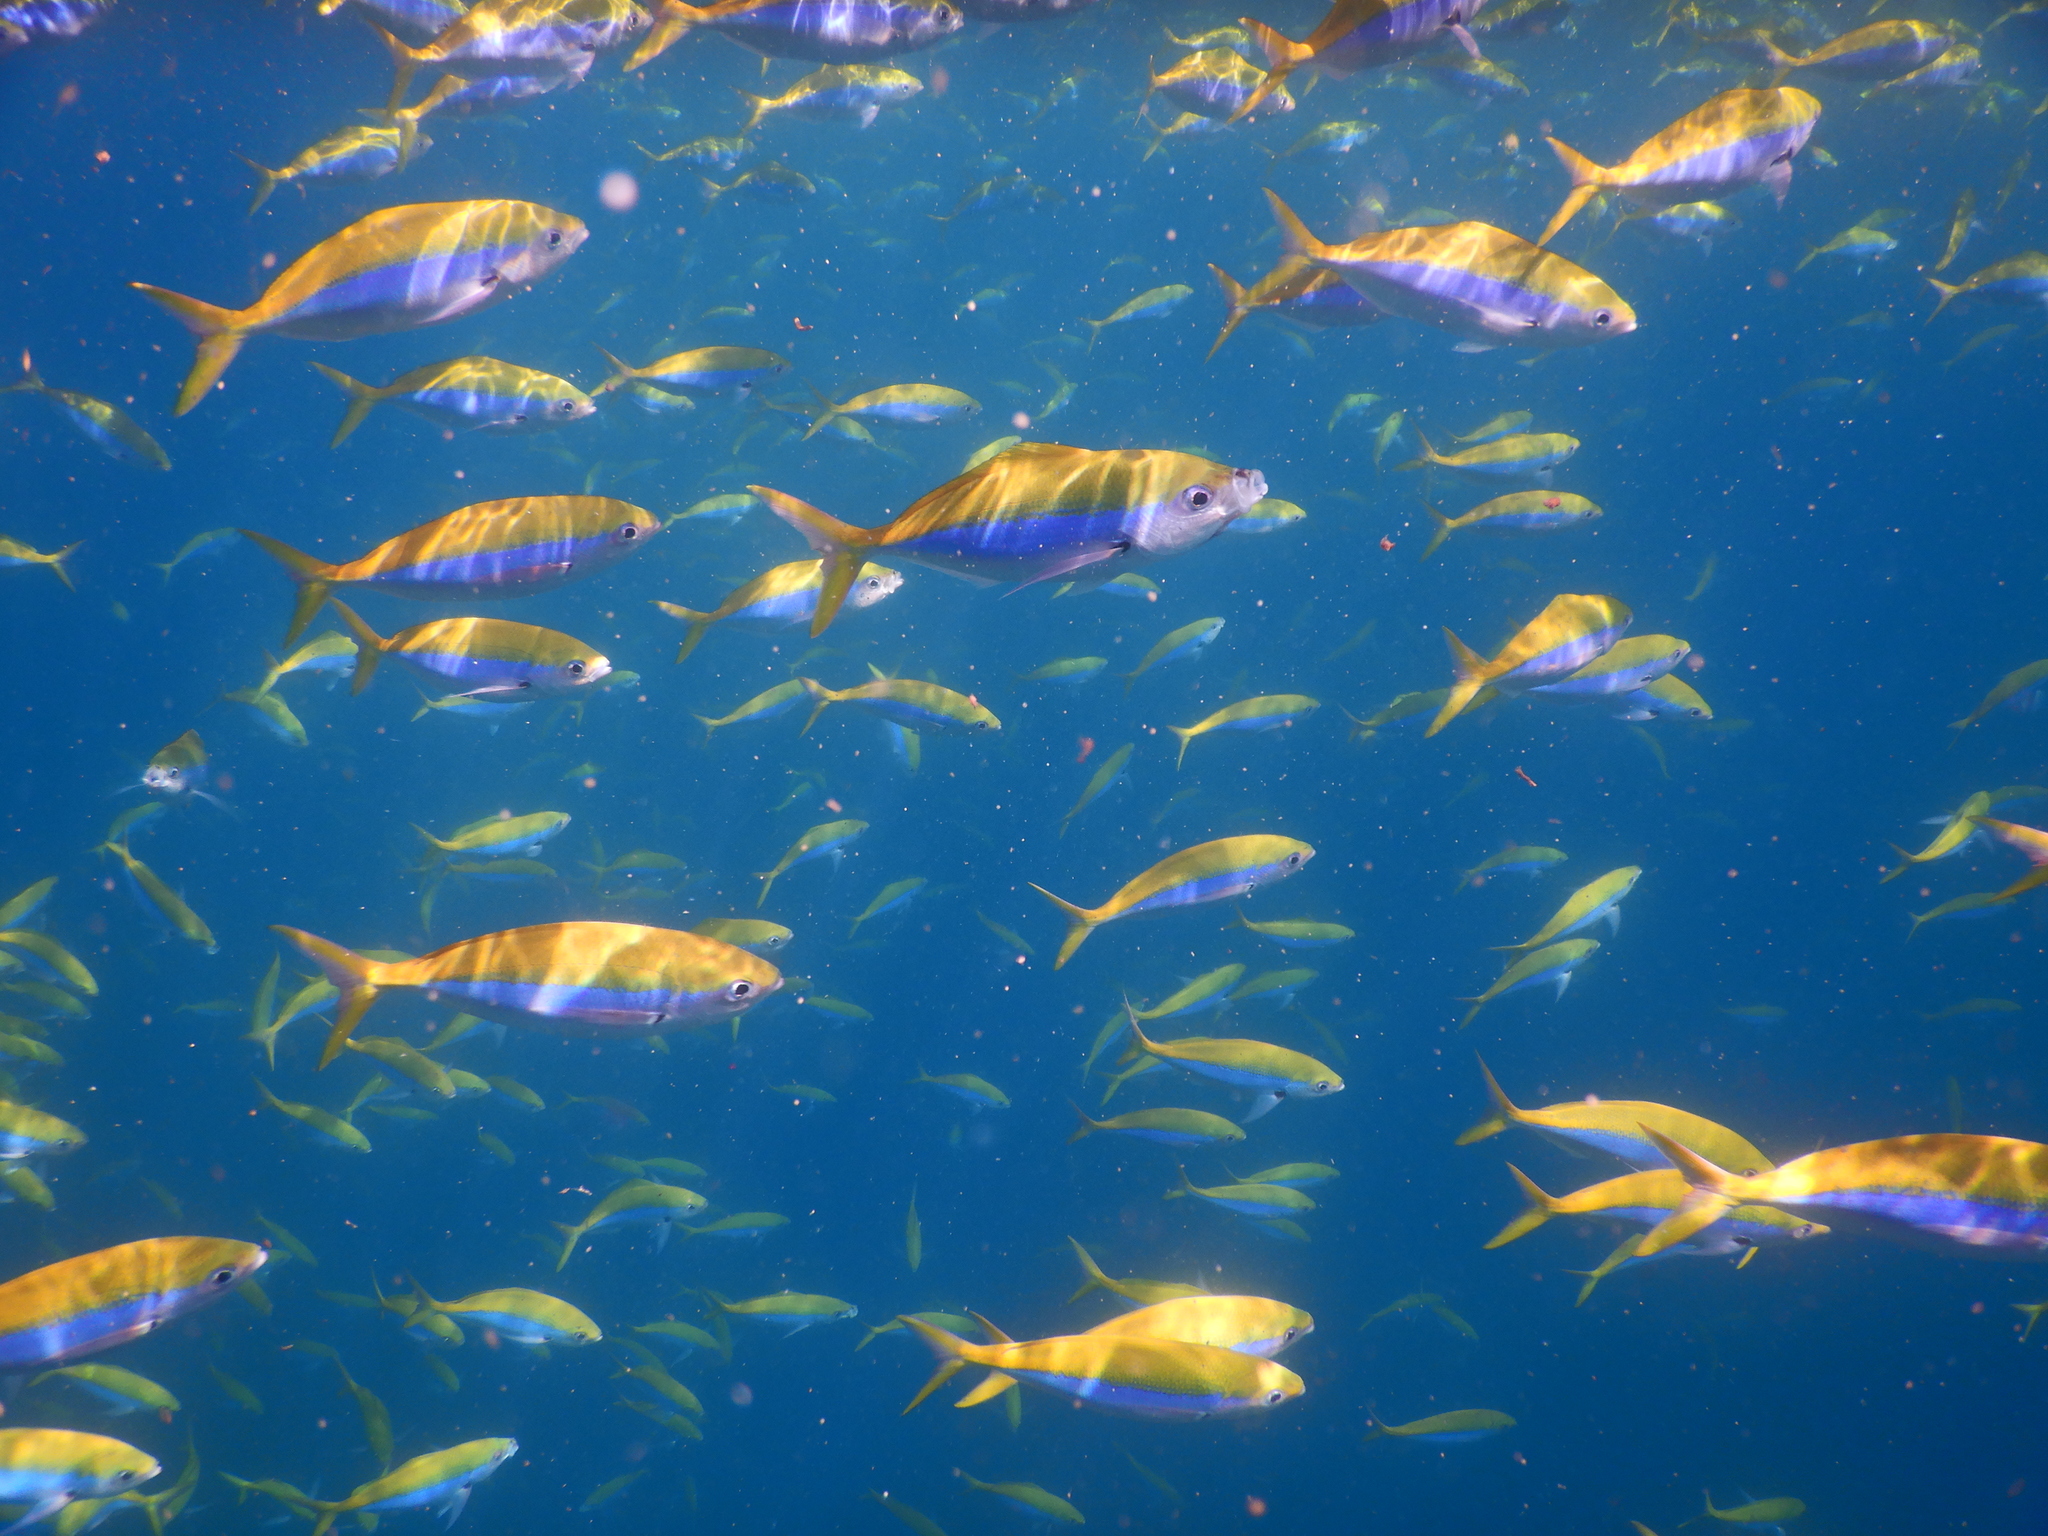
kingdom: Animalia
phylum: Chordata
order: Perciformes
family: Caesionidae
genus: Caesio
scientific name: Caesio xanthonota
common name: Yellowback fusilier
